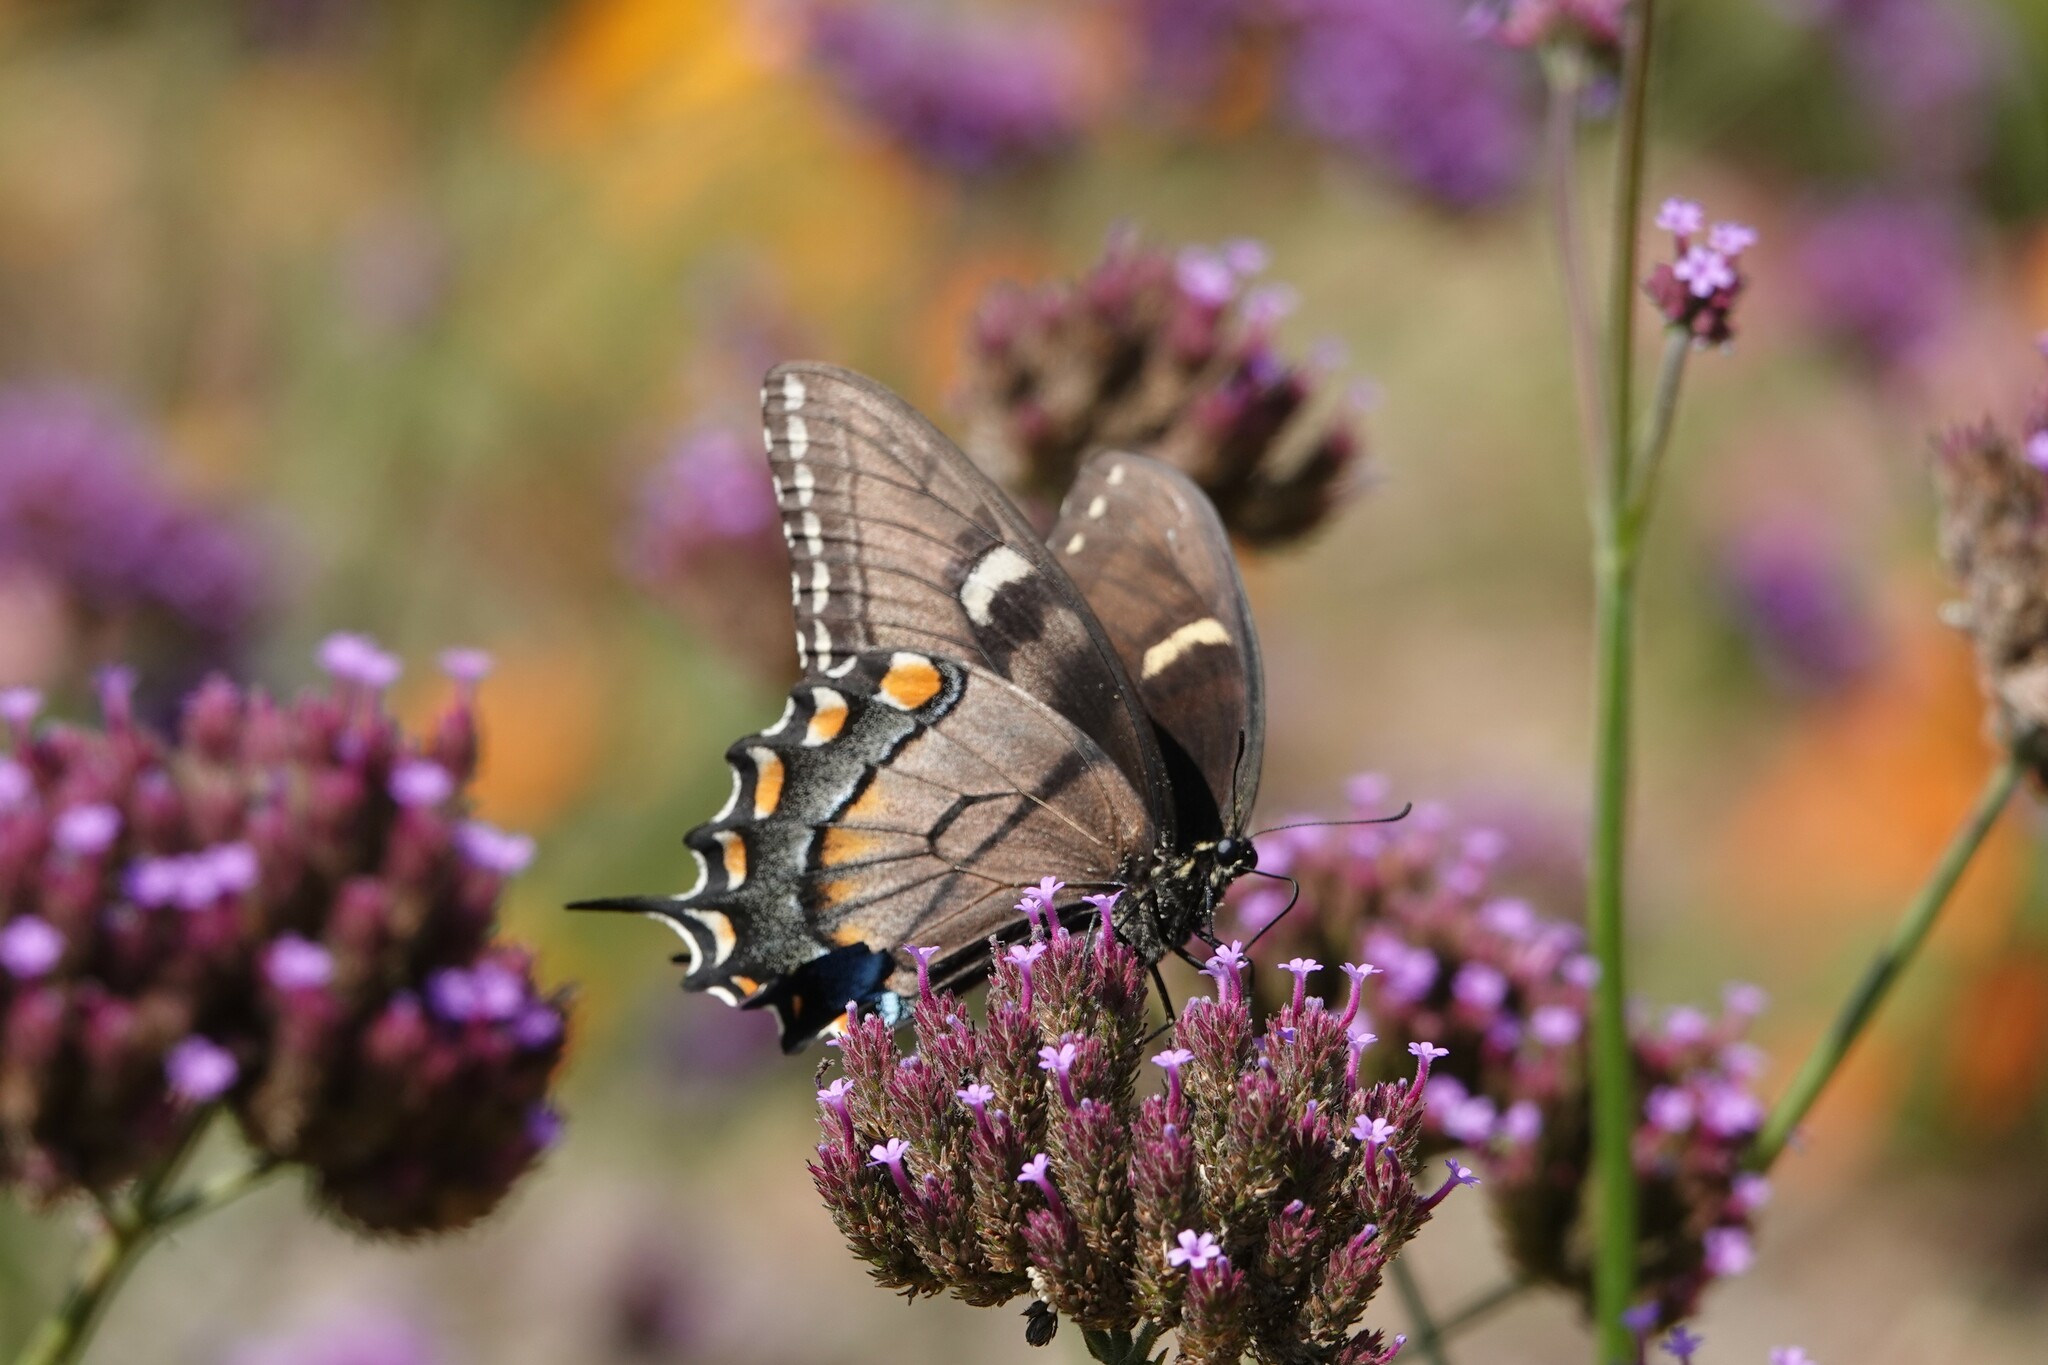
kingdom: Animalia
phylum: Arthropoda
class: Insecta
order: Lepidoptera
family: Papilionidae
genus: Papilio
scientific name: Papilio glaucus
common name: Tiger swallowtail
